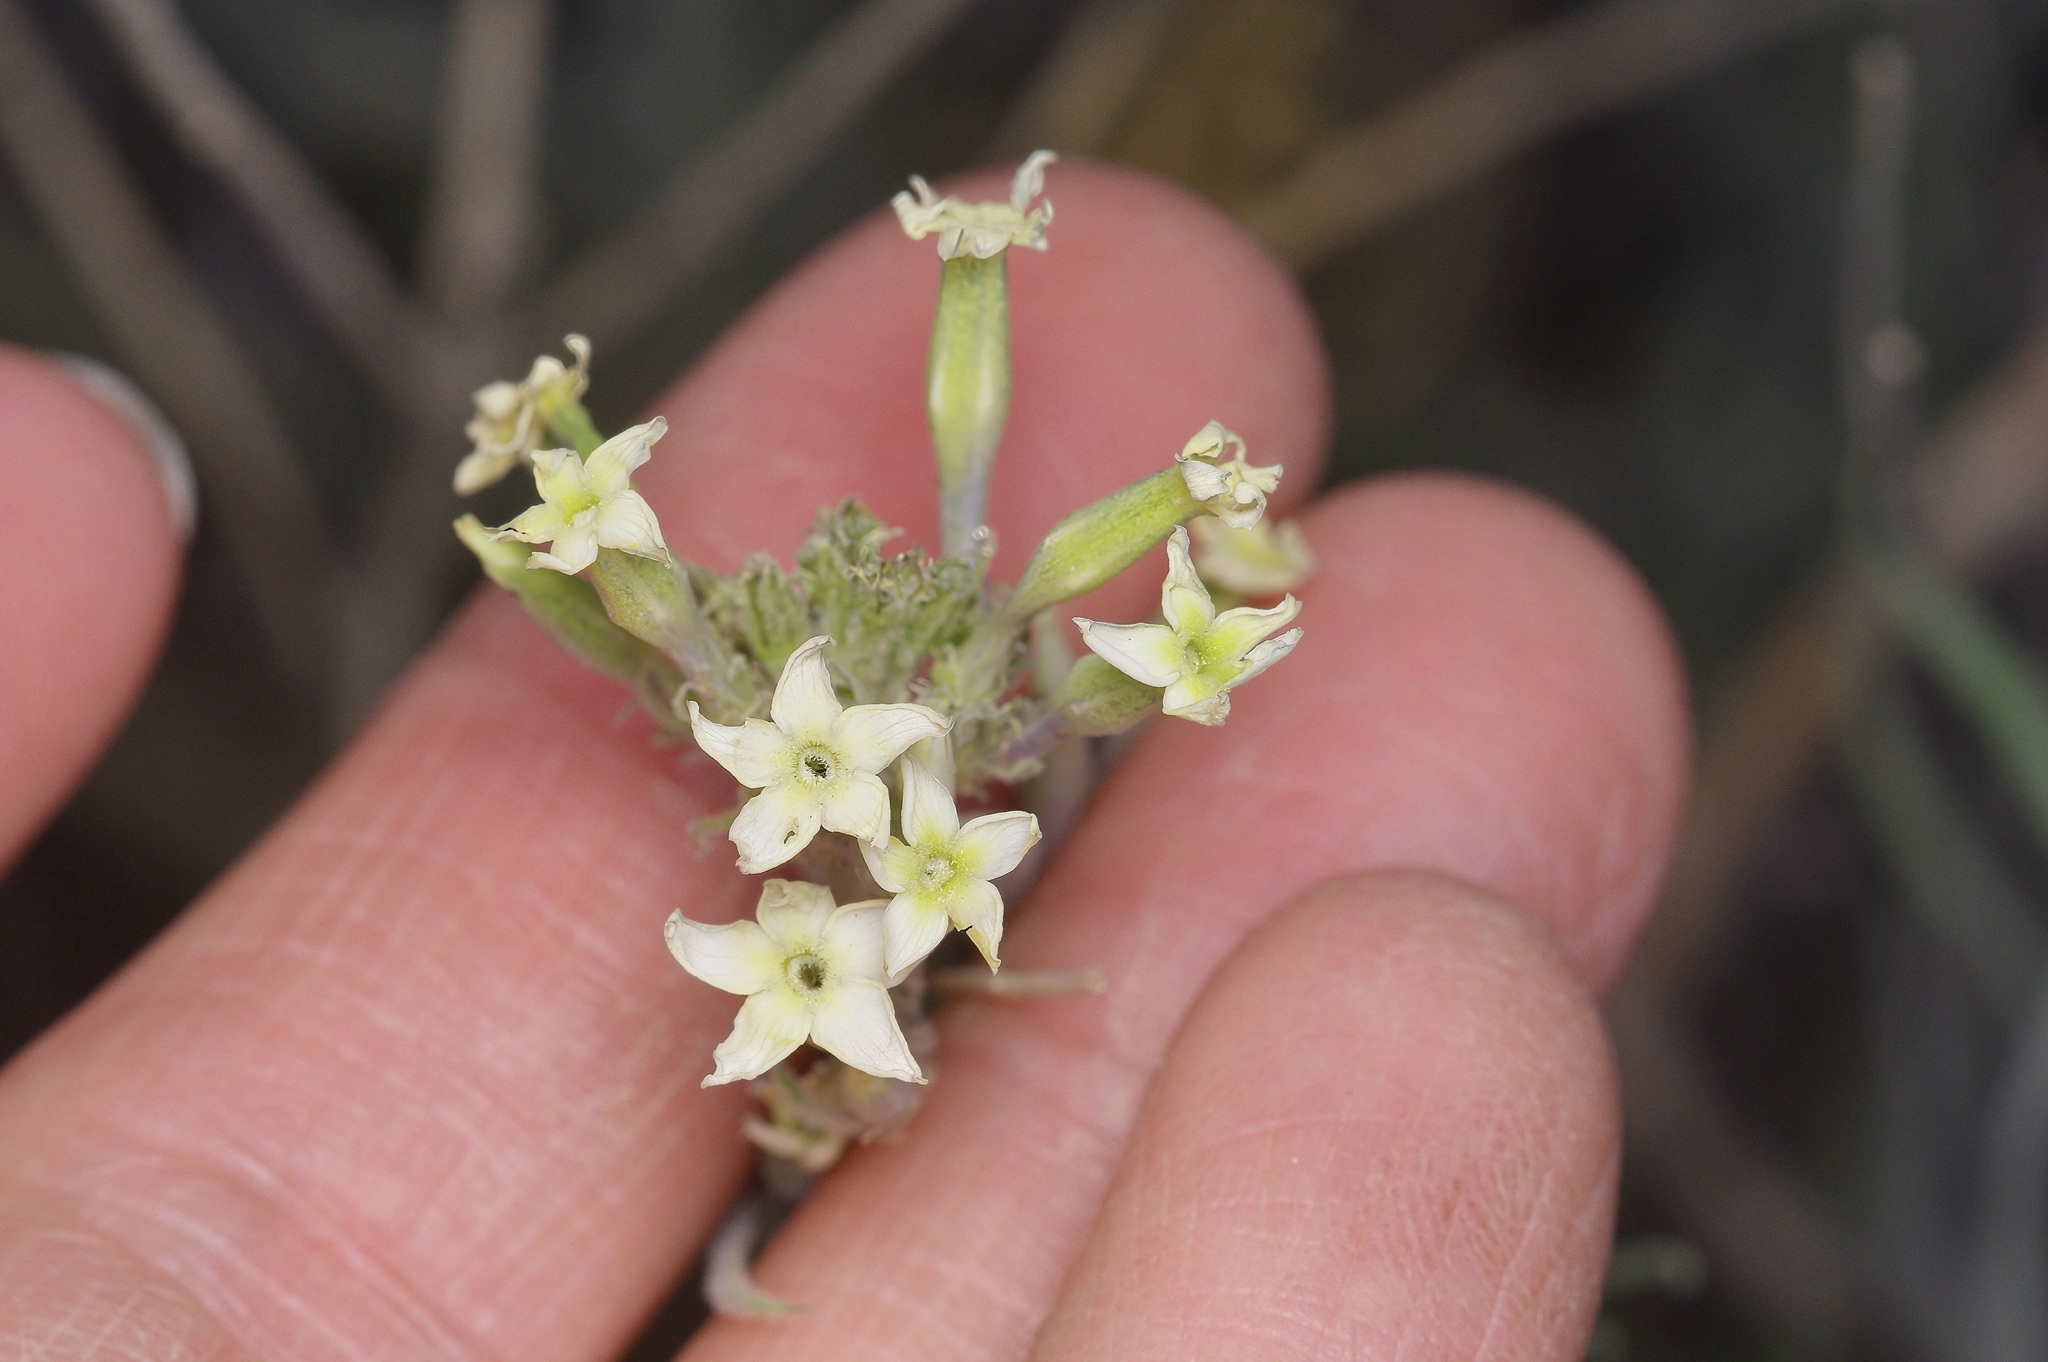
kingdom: Plantae
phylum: Tracheophyta
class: Magnoliopsida
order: Gentianales
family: Apocynaceae
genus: Amsonia
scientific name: Amsonia palmeri
